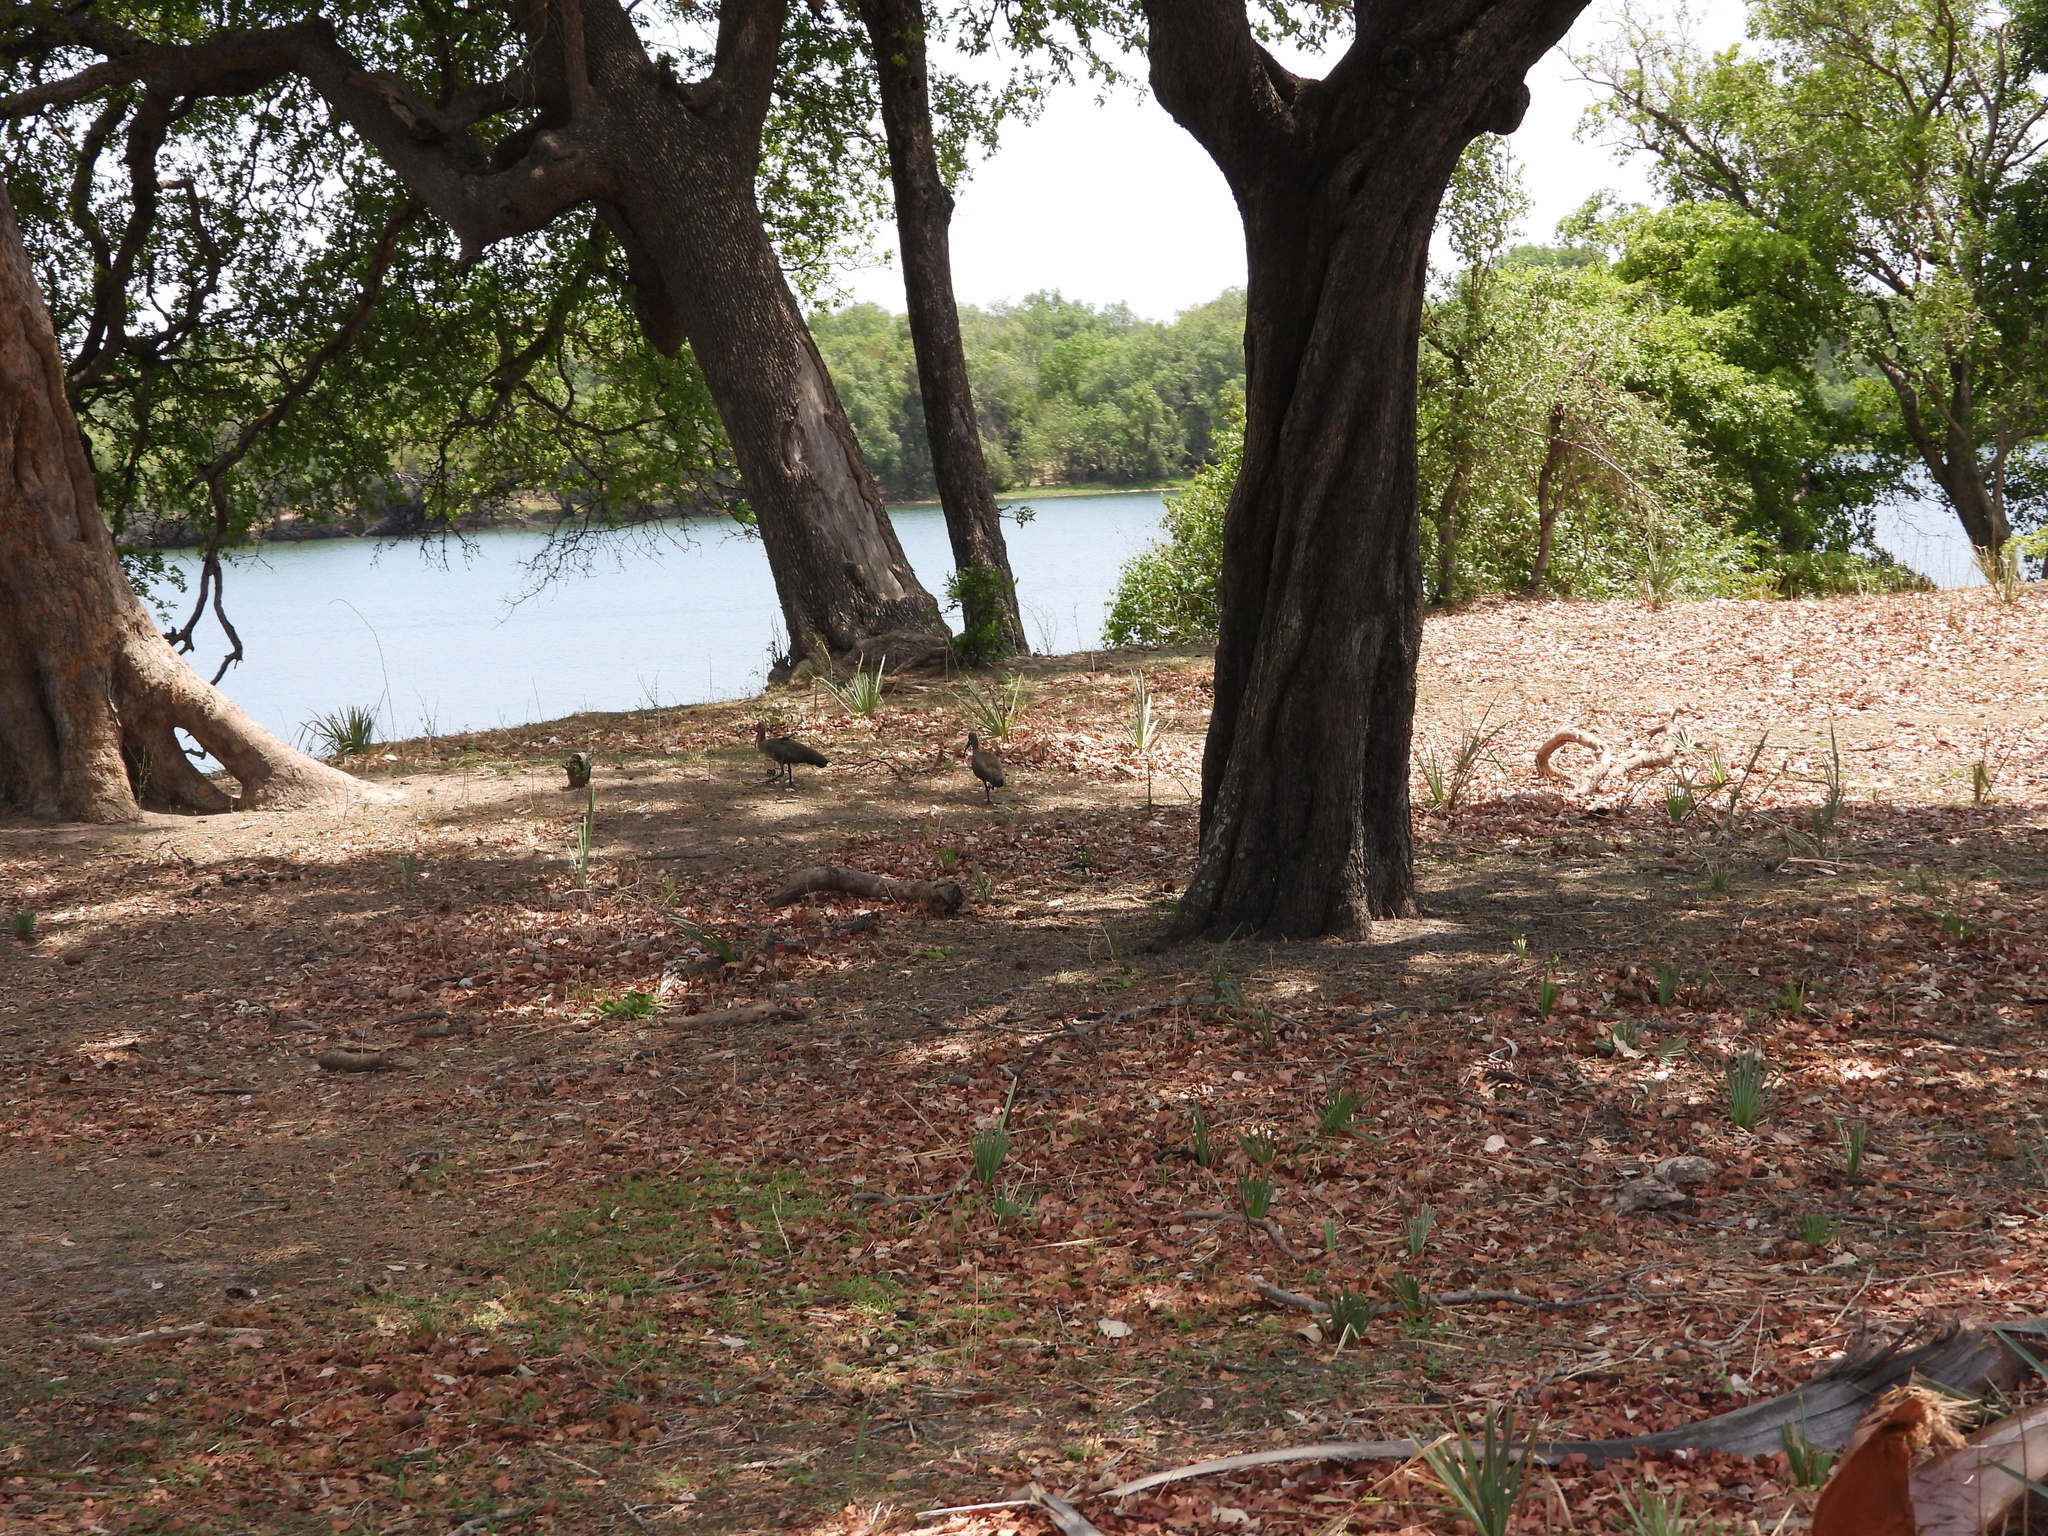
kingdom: Animalia
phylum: Chordata
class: Aves
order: Pelecaniformes
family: Threskiornithidae
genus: Bostrychia
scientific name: Bostrychia hagedash
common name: Hadada ibis
